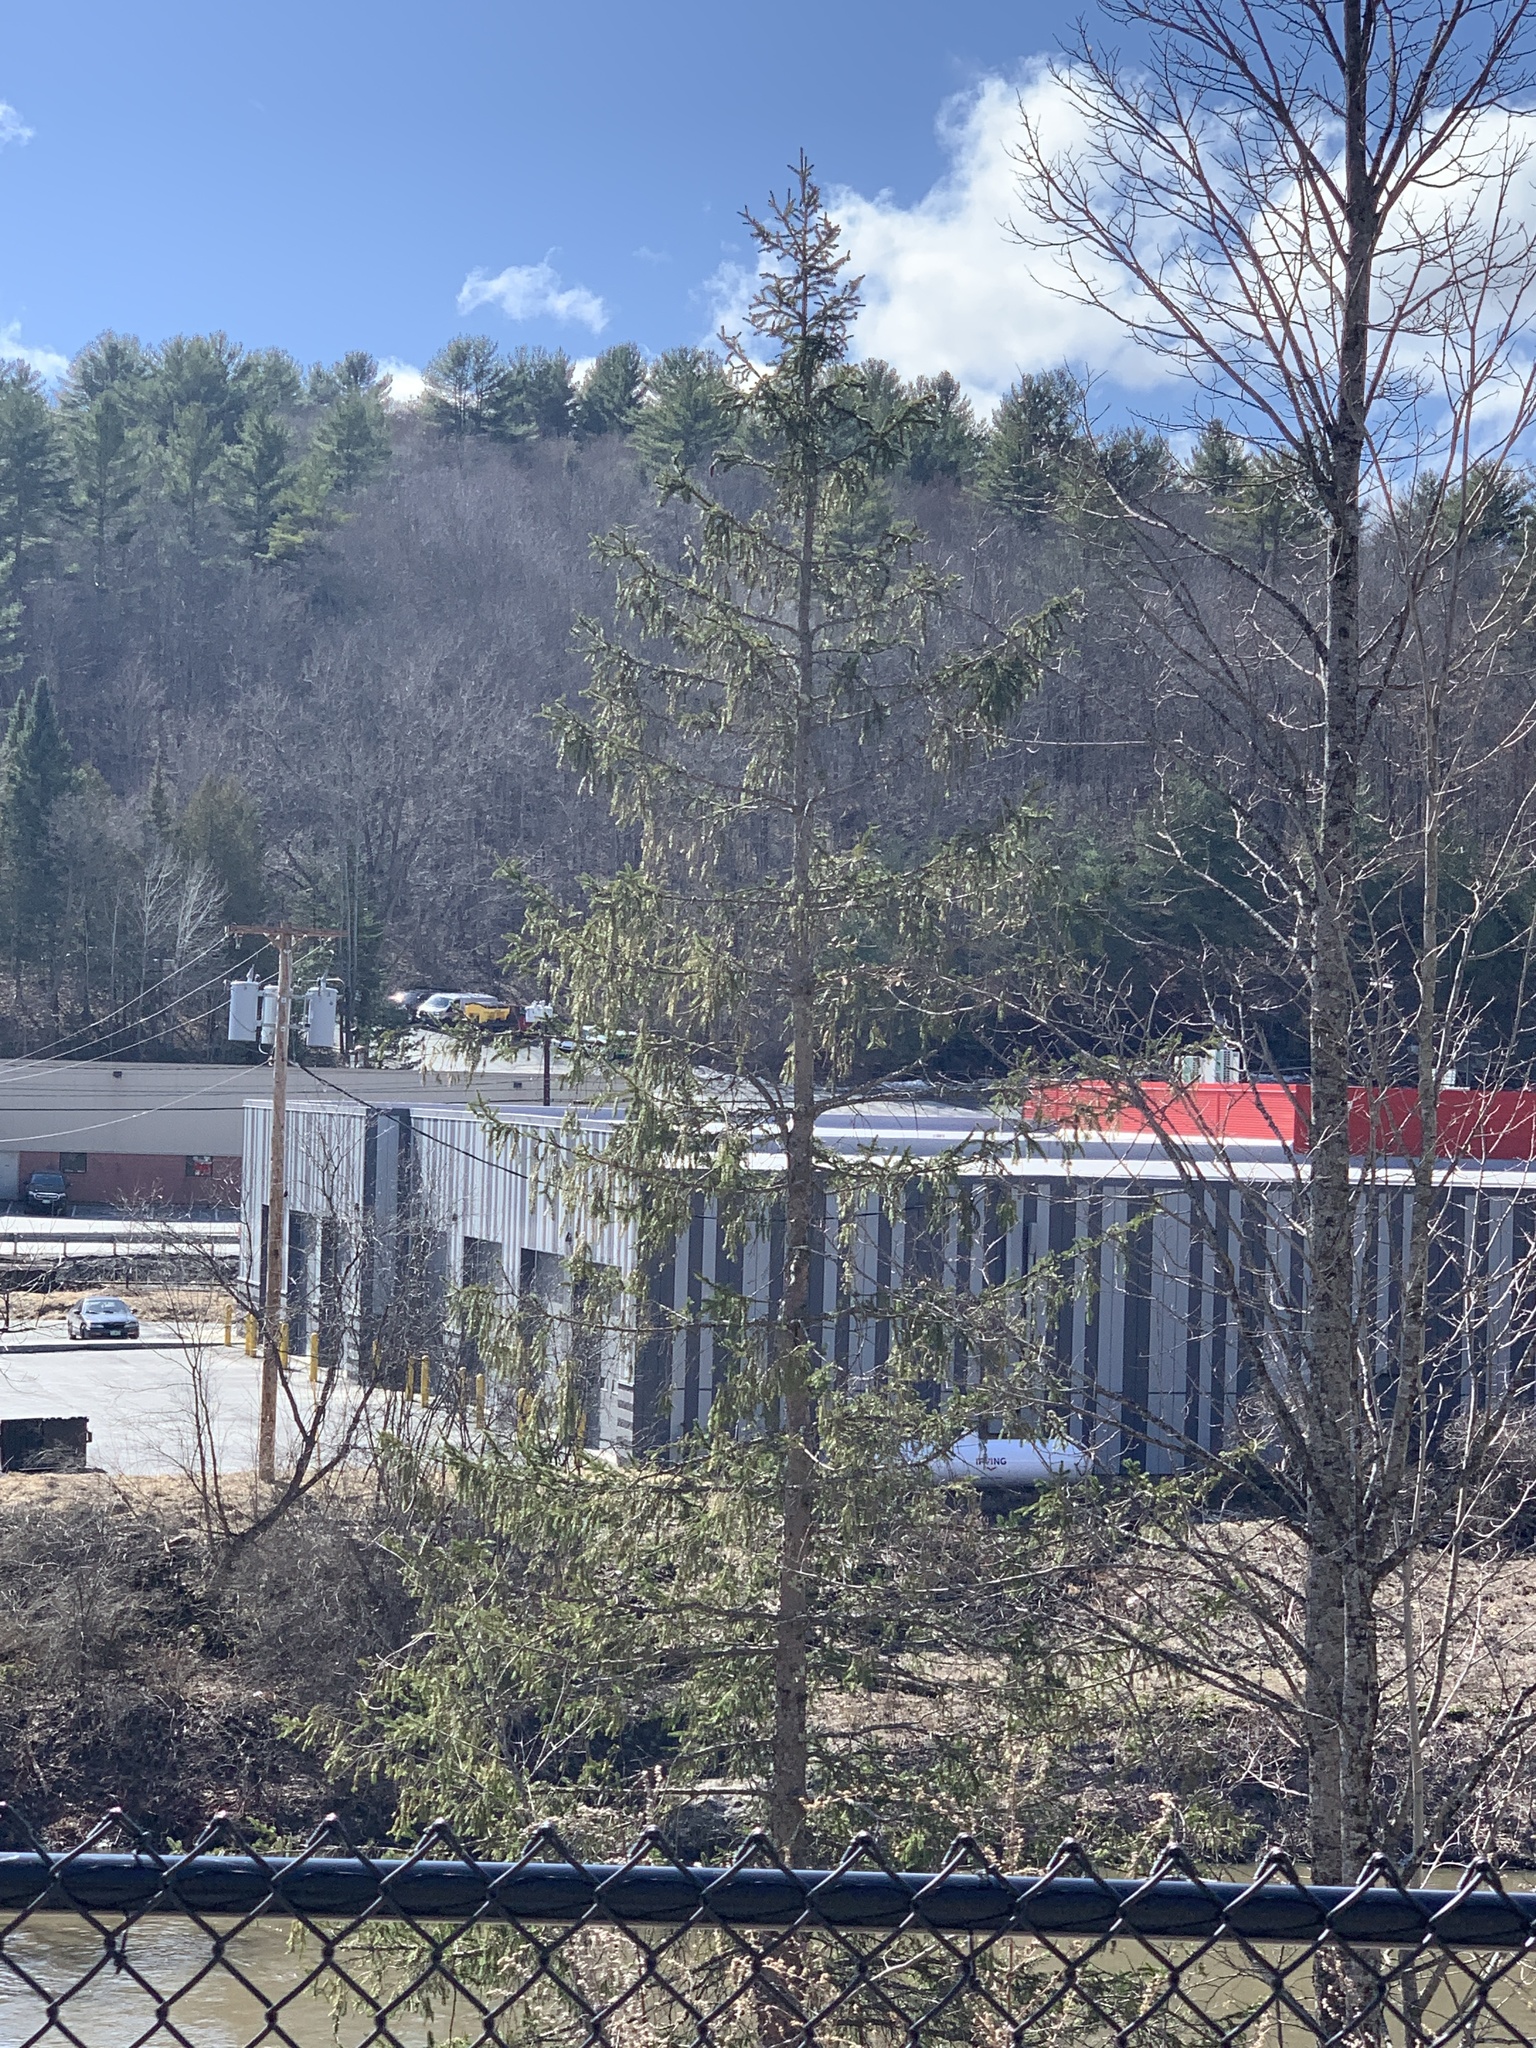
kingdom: Plantae
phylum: Tracheophyta
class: Pinopsida
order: Pinales
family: Pinaceae
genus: Picea
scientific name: Picea abies
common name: Norway spruce
